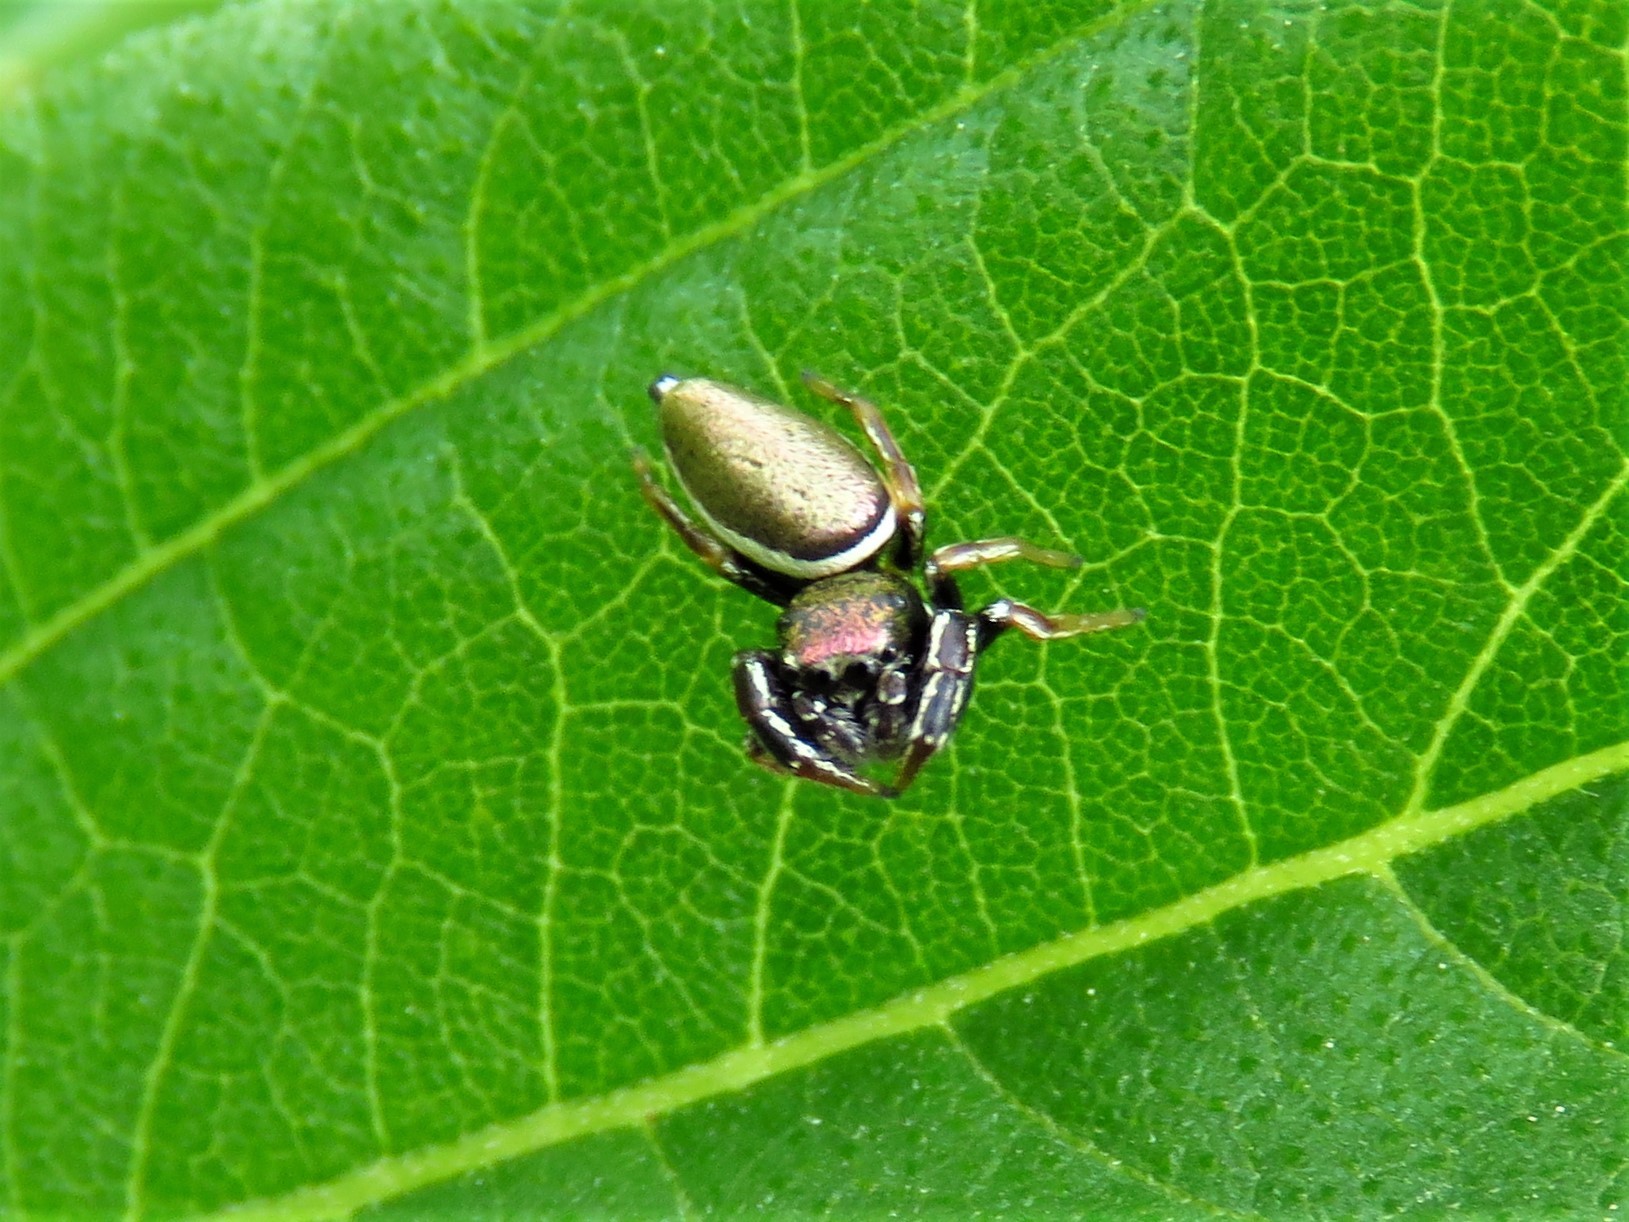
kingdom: Animalia
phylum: Arthropoda
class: Arachnida
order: Araneae
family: Salticidae
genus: Sassacus
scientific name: Sassacus vitis
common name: Jumping spiders
